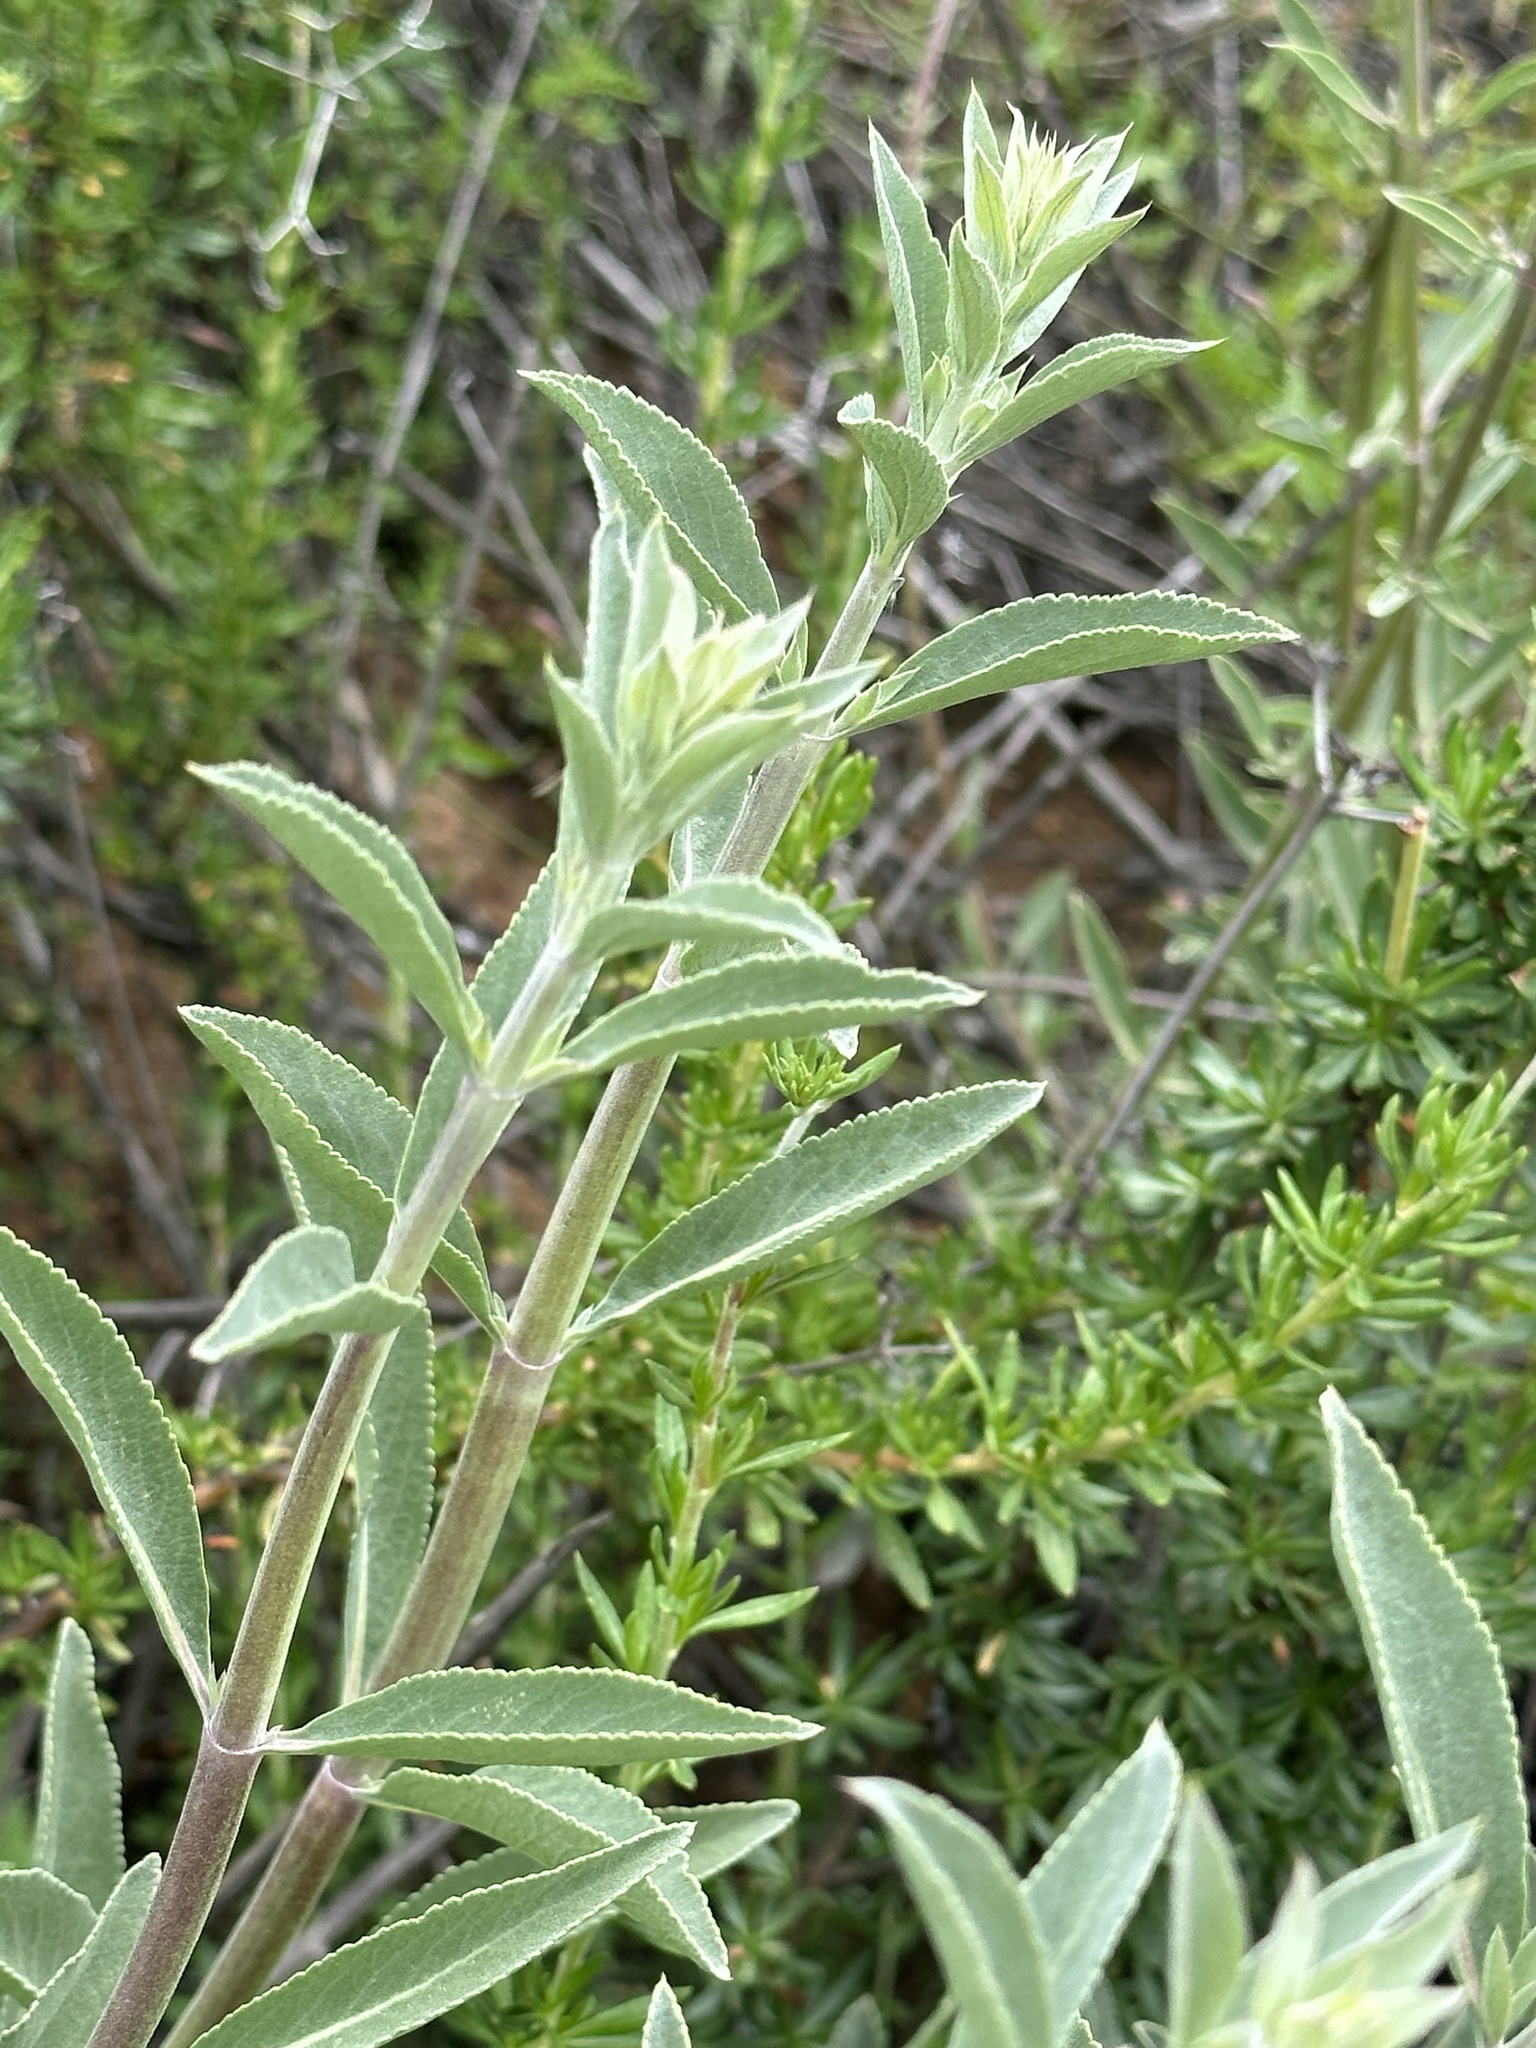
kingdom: Plantae
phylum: Tracheophyta
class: Magnoliopsida
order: Lamiales
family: Lamiaceae
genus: Salvia
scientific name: Salvia apiana
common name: White sage
